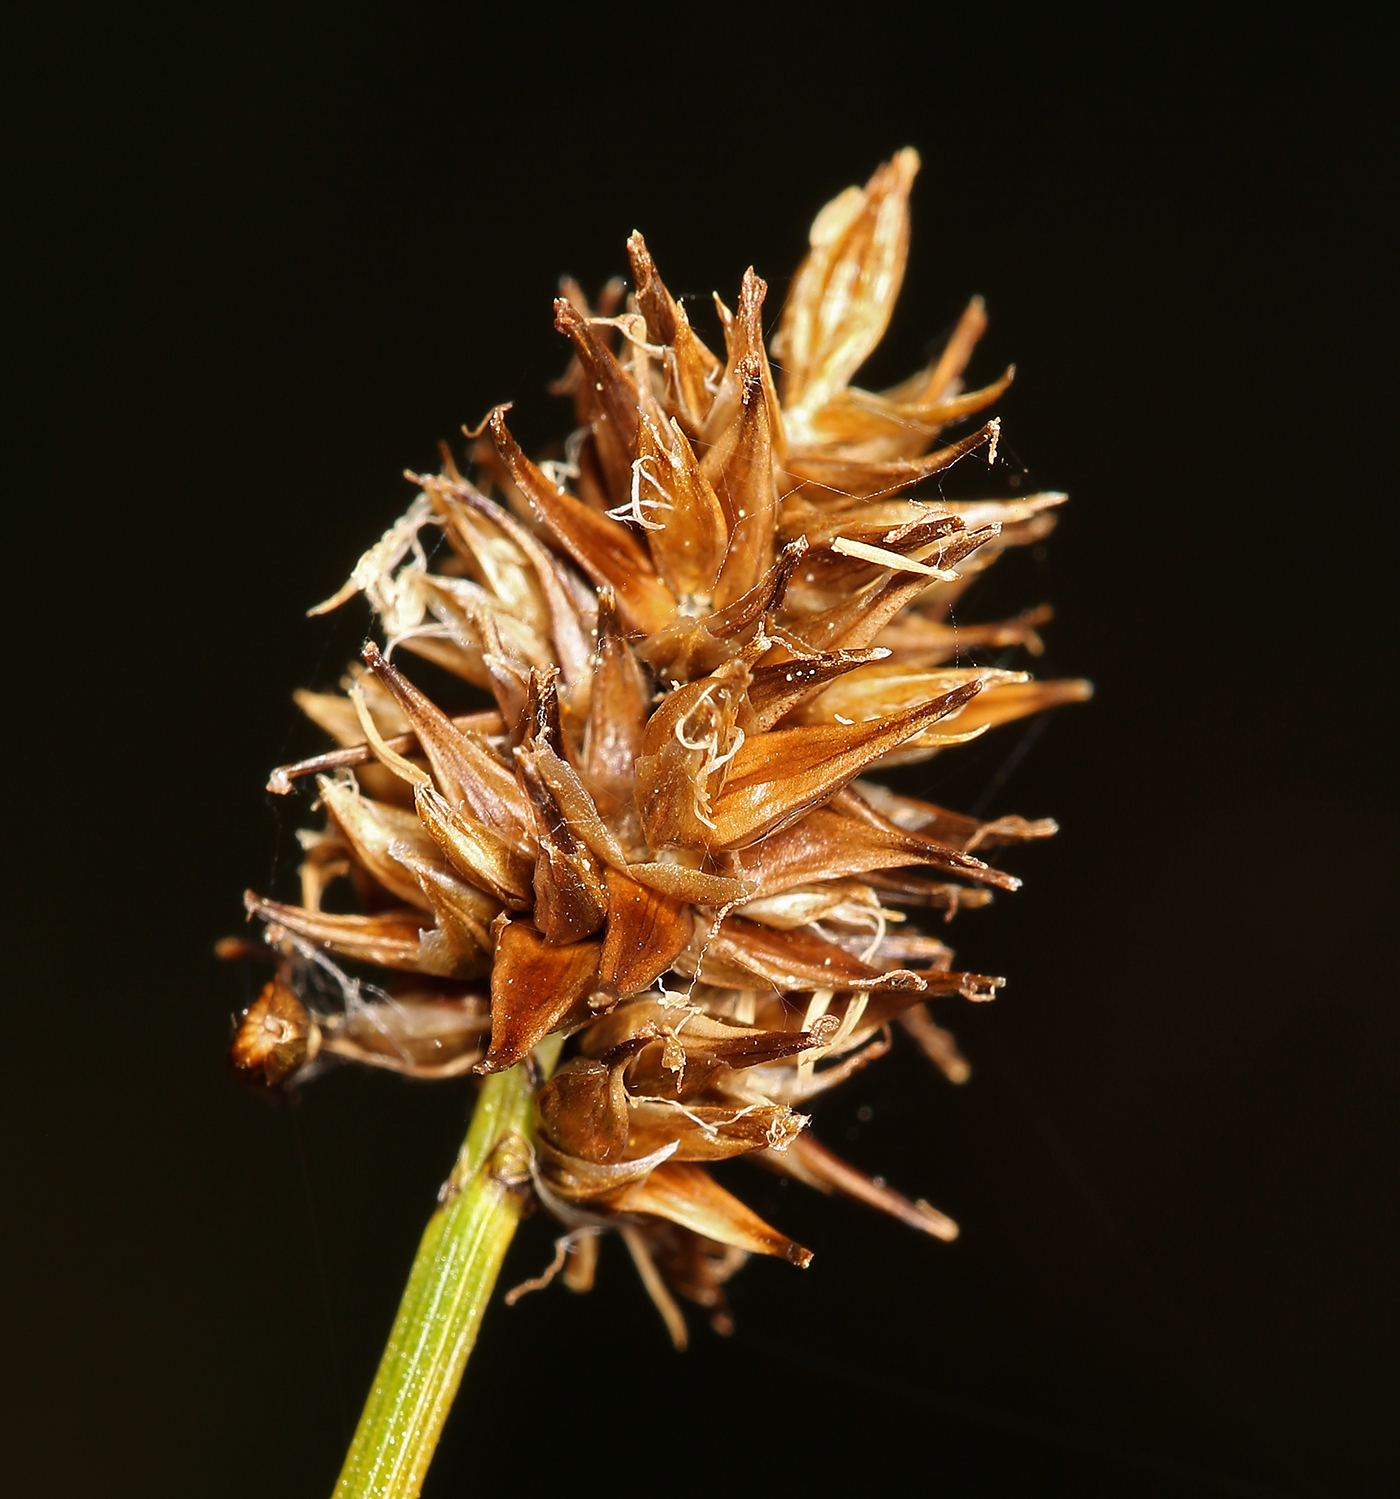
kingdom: Plantae
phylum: Tracheophyta
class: Liliopsida
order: Poales
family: Cyperaceae
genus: Carex
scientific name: Carex jonesii
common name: Jones' sedge
